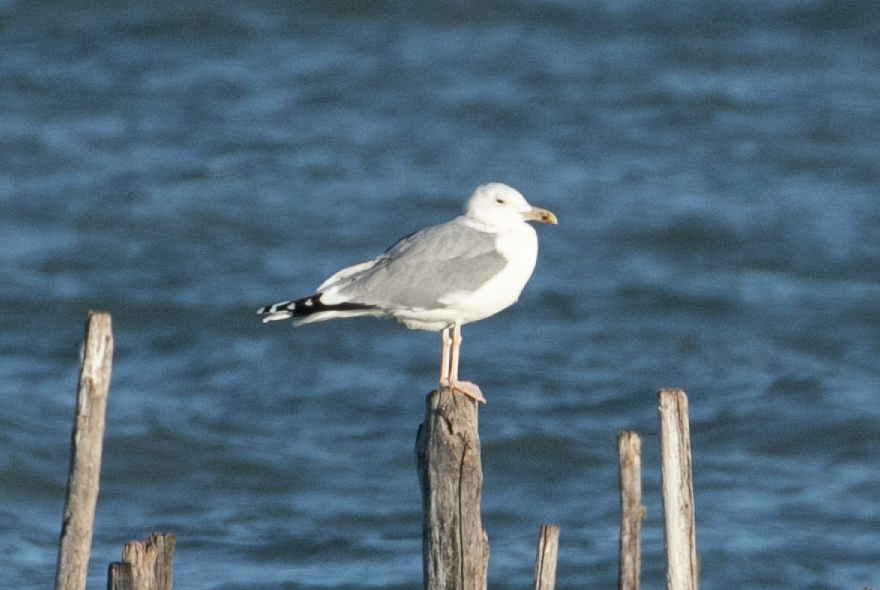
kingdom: Animalia
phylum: Chordata
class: Aves
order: Charadriiformes
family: Laridae
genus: Larus
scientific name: Larus cachinnans
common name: Caspian gull
